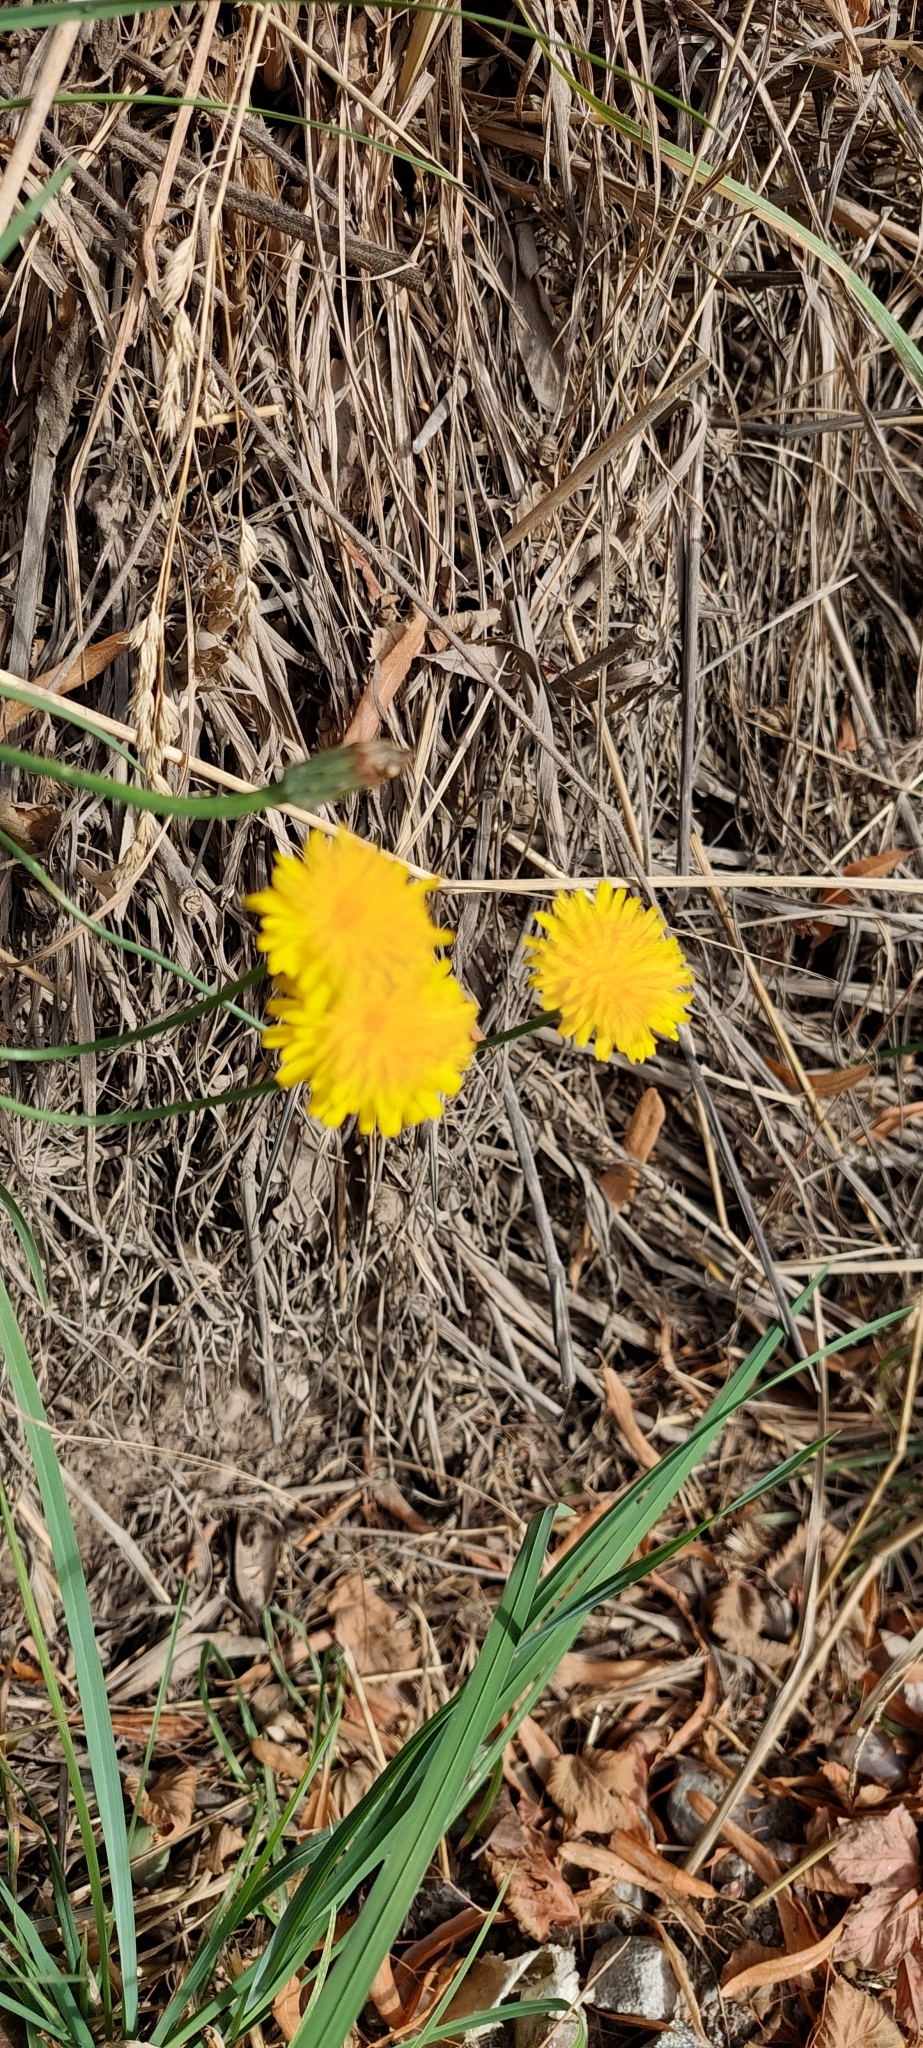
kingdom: Plantae
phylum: Tracheophyta
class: Magnoliopsida
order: Asterales
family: Asteraceae
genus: Hypochaeris
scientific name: Hypochaeris radicata
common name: Flatweed
